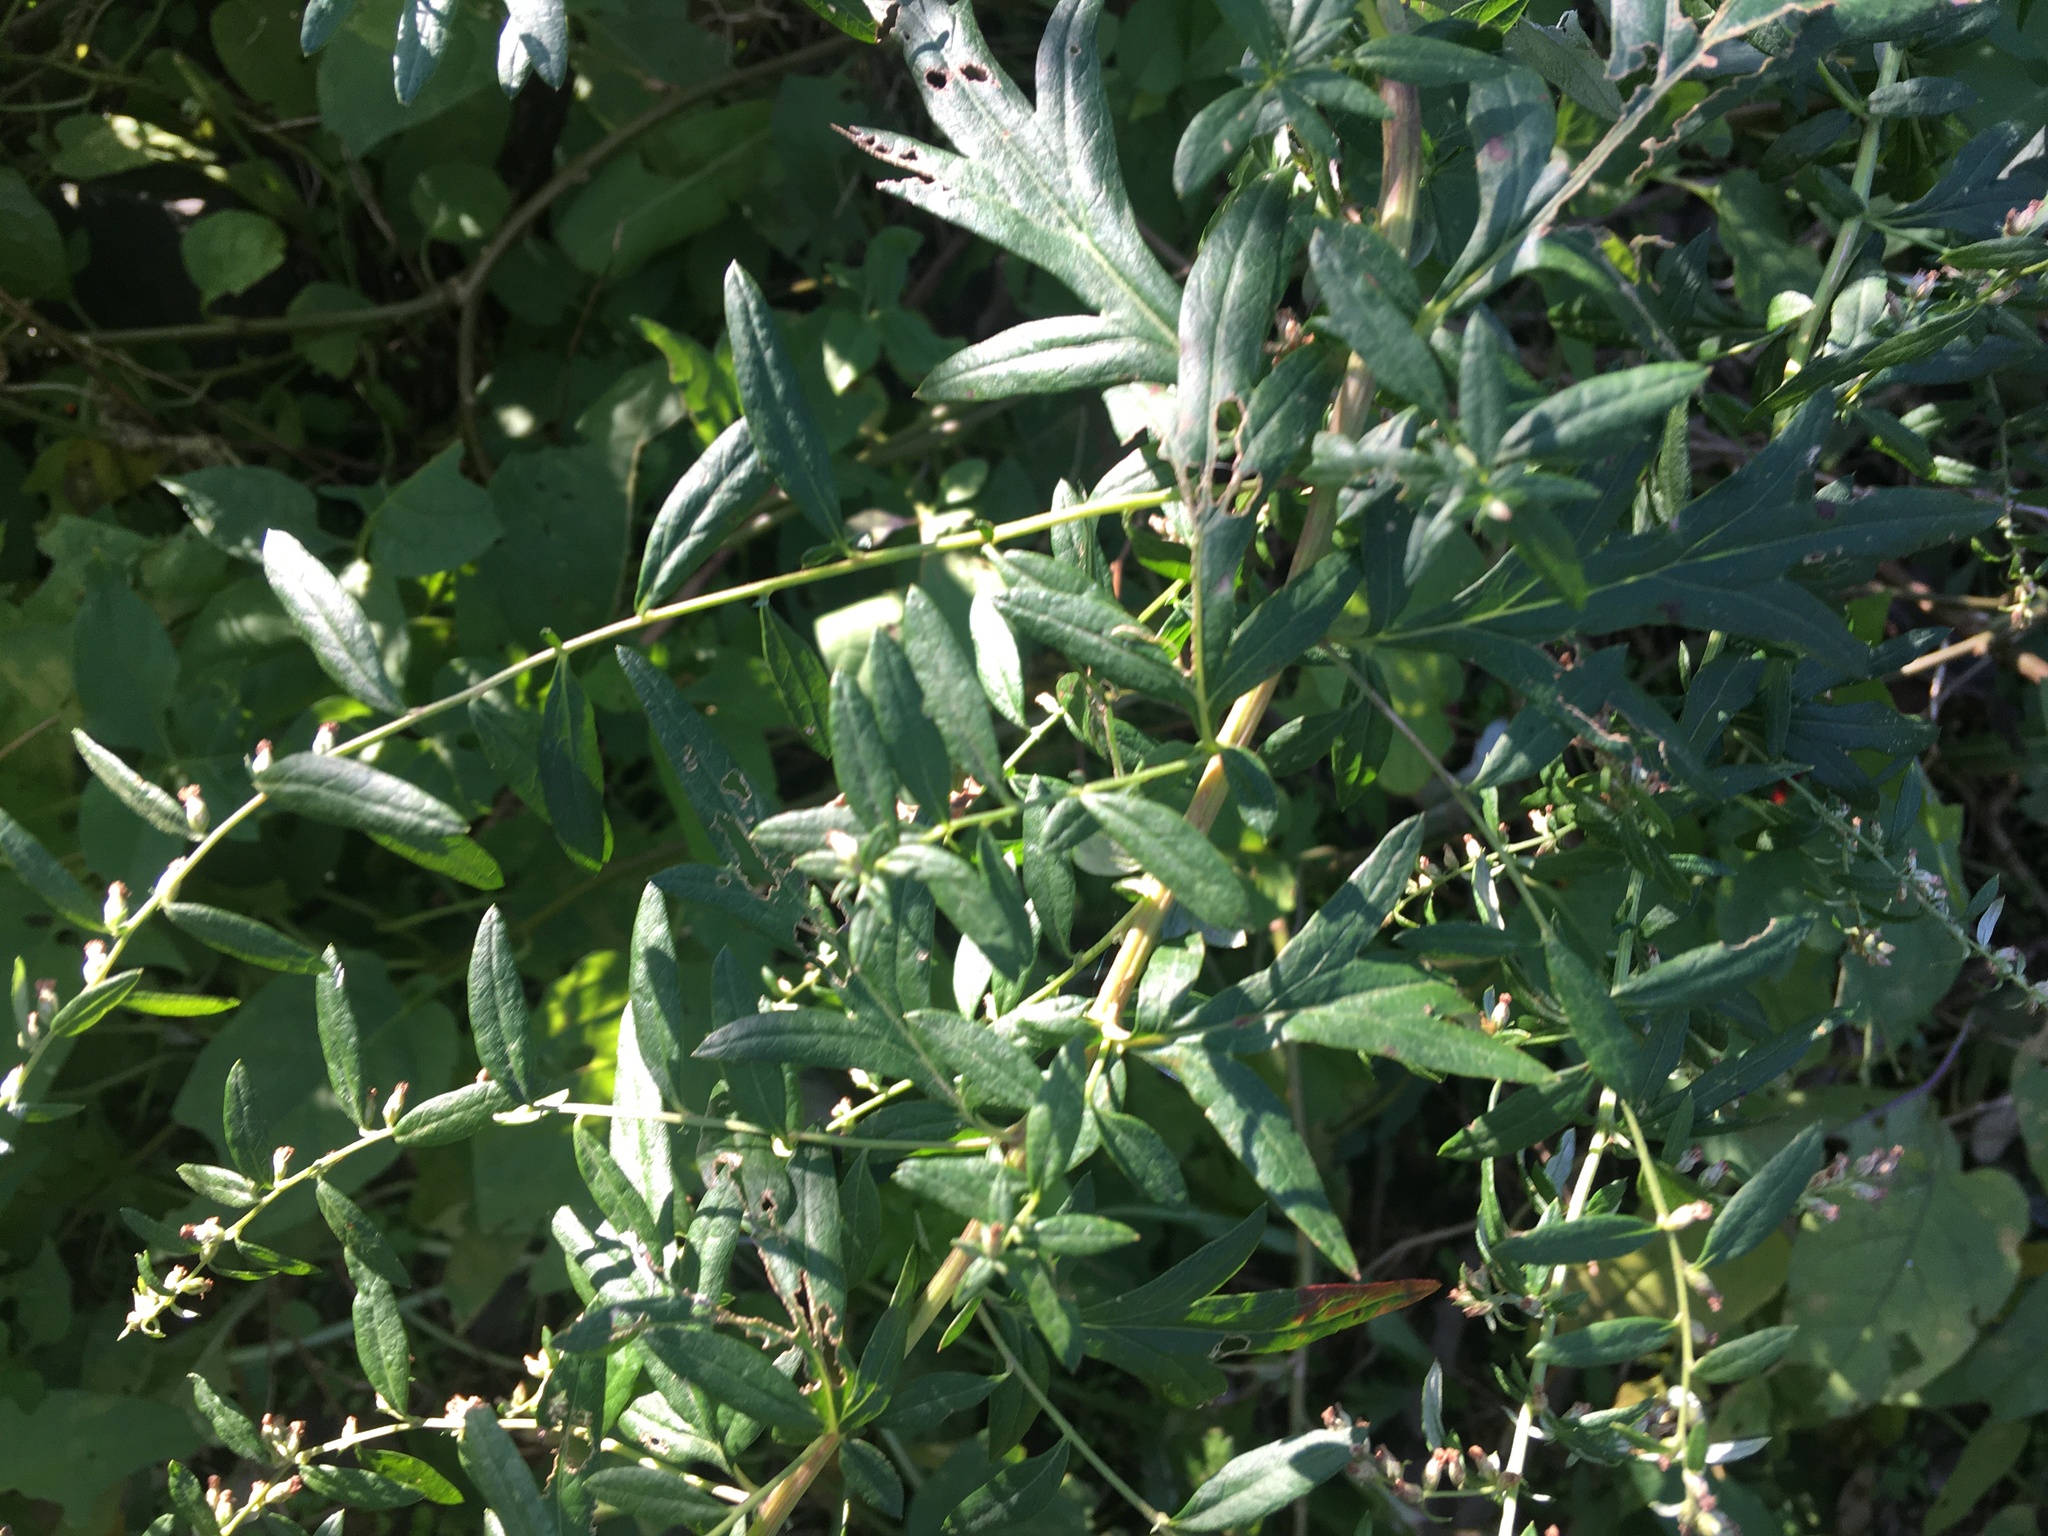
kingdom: Plantae
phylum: Tracheophyta
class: Magnoliopsida
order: Asterales
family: Asteraceae
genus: Artemisia
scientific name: Artemisia vulgaris
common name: Mugwort
